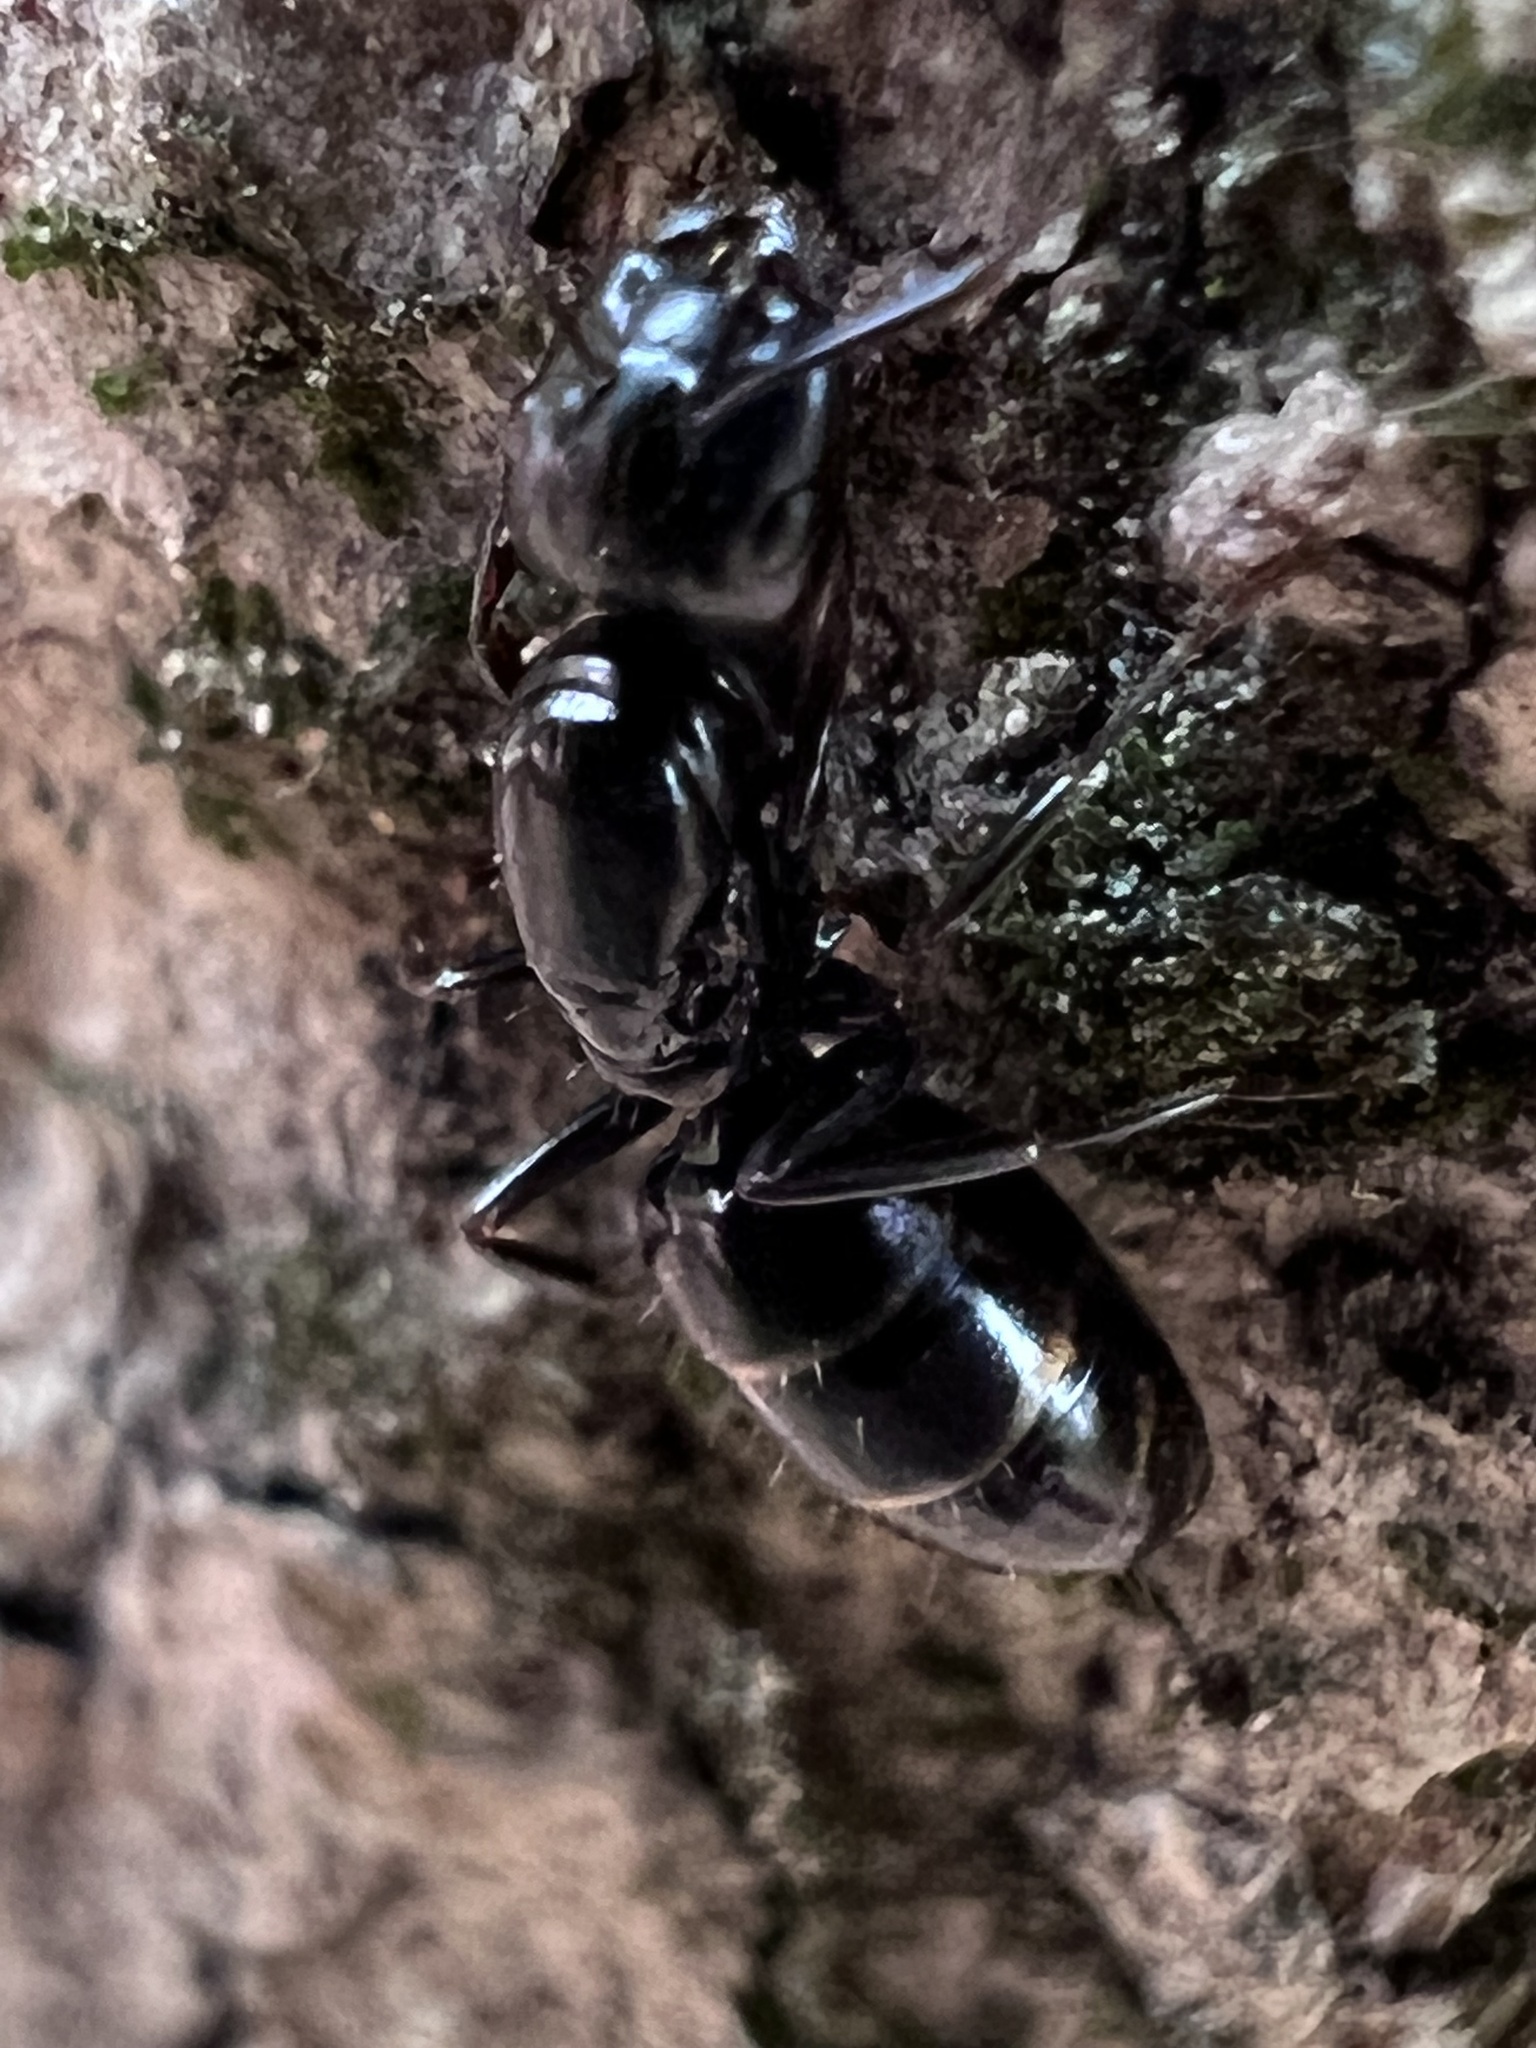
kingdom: Animalia
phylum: Arthropoda
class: Insecta
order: Hymenoptera
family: Formicidae
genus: Camponotus
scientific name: Camponotus nearcticus
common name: Smaller carpenter ant
